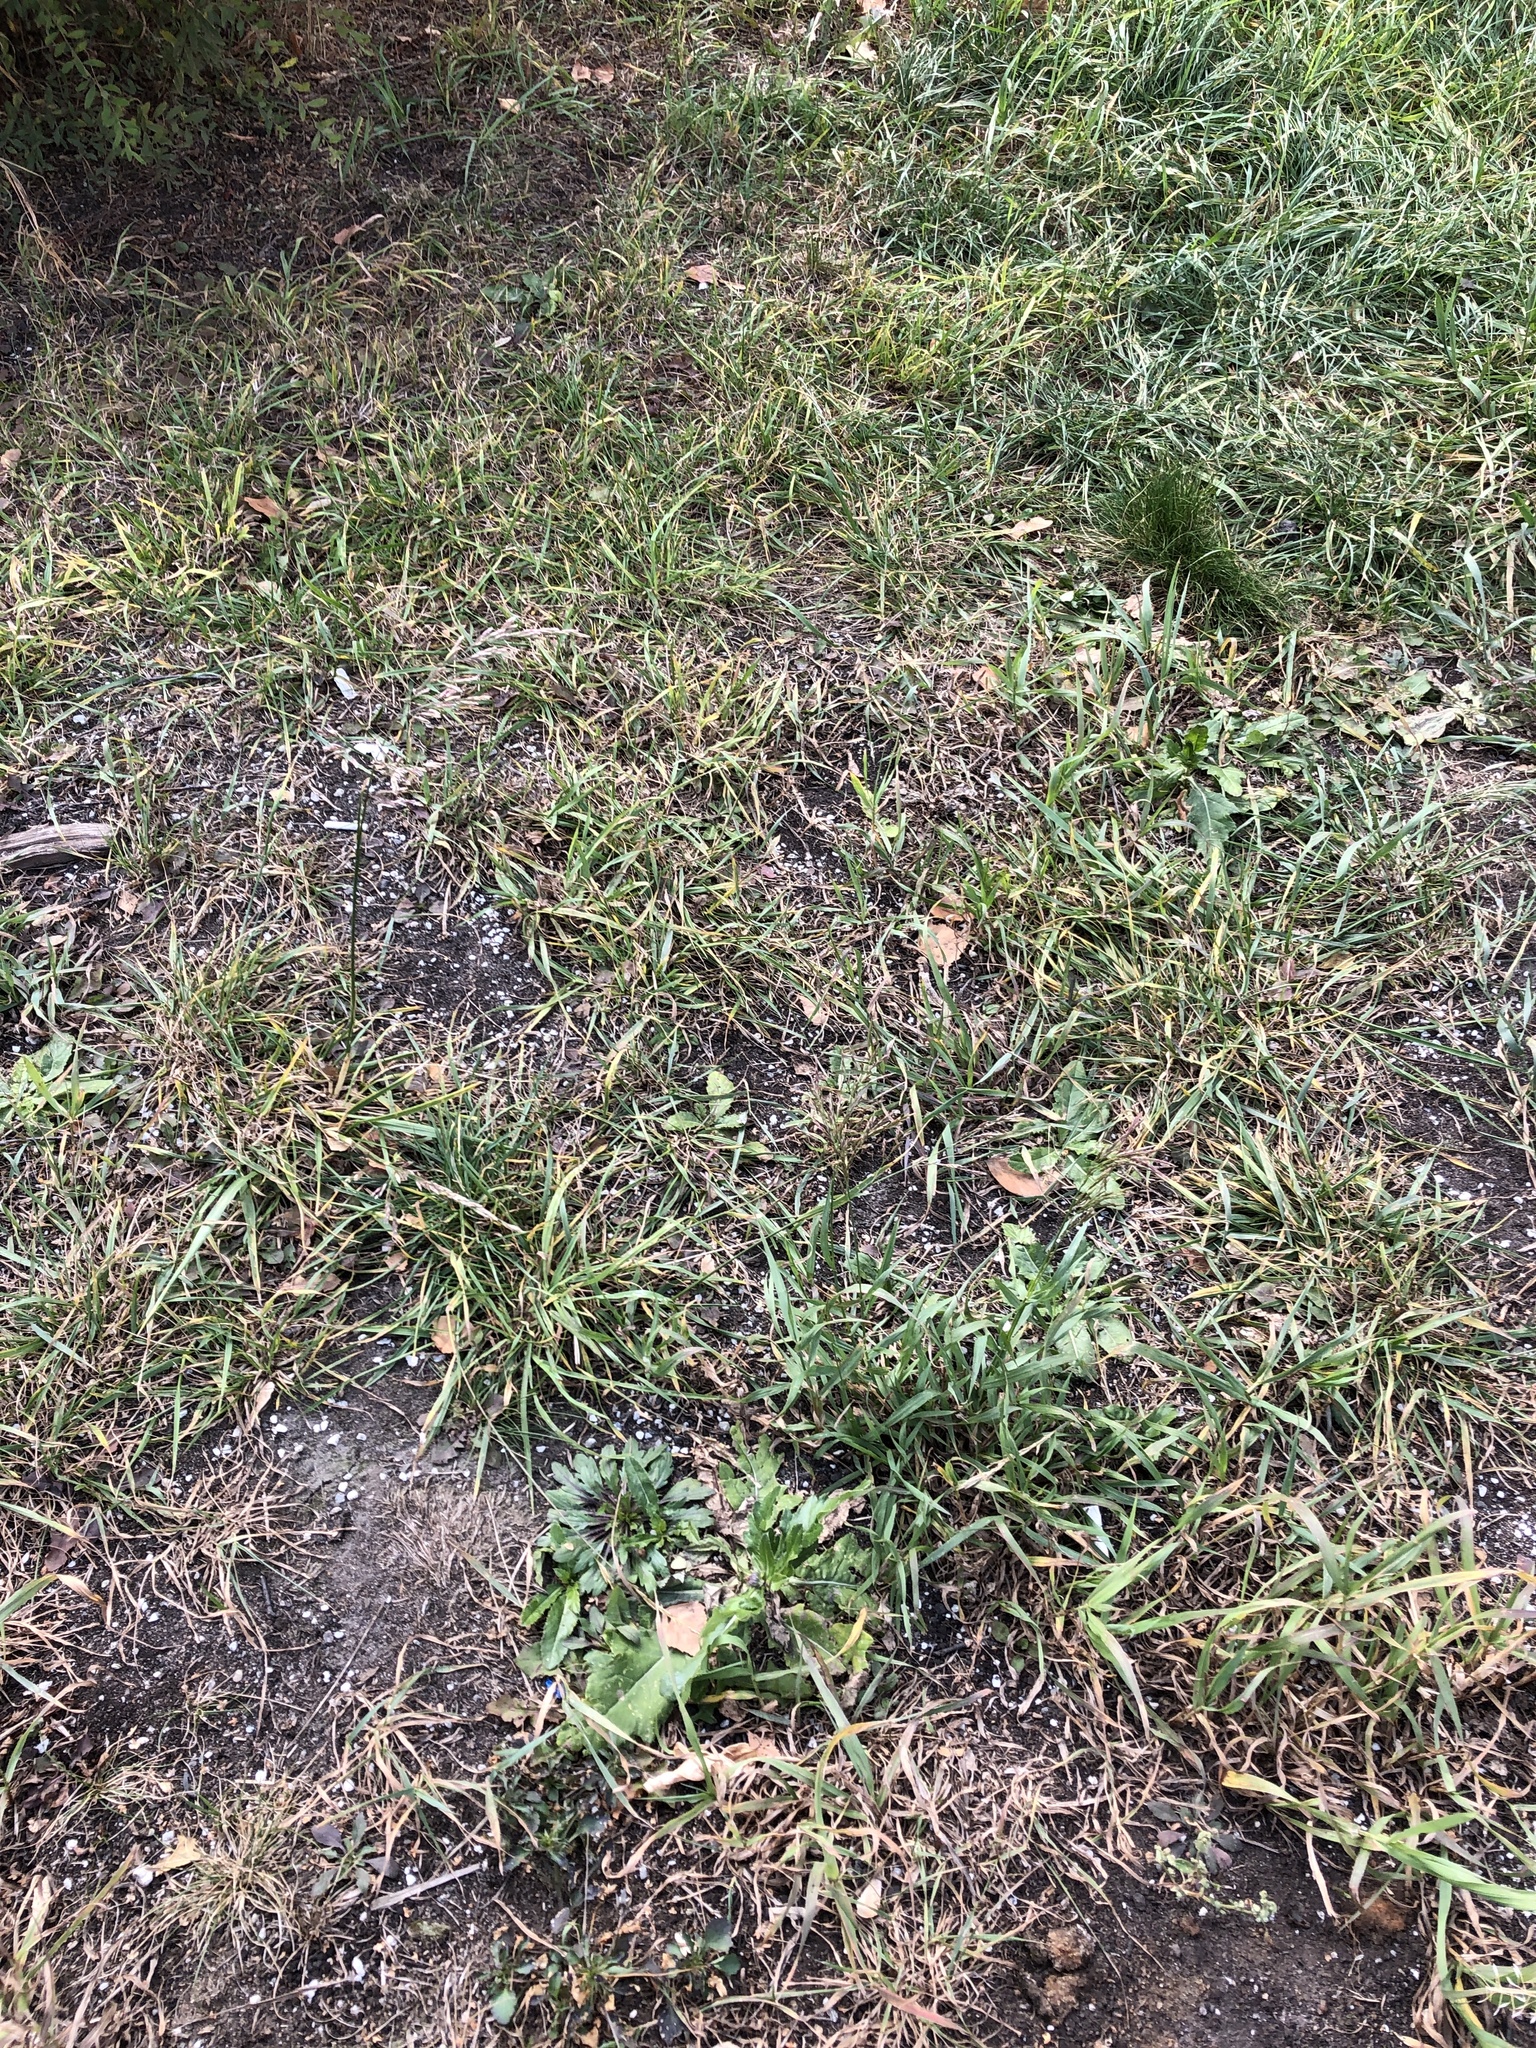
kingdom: Plantae
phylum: Tracheophyta
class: Liliopsida
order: Poales
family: Poaceae
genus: Lolium
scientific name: Lolium arundinaceum
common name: Reed fescue
